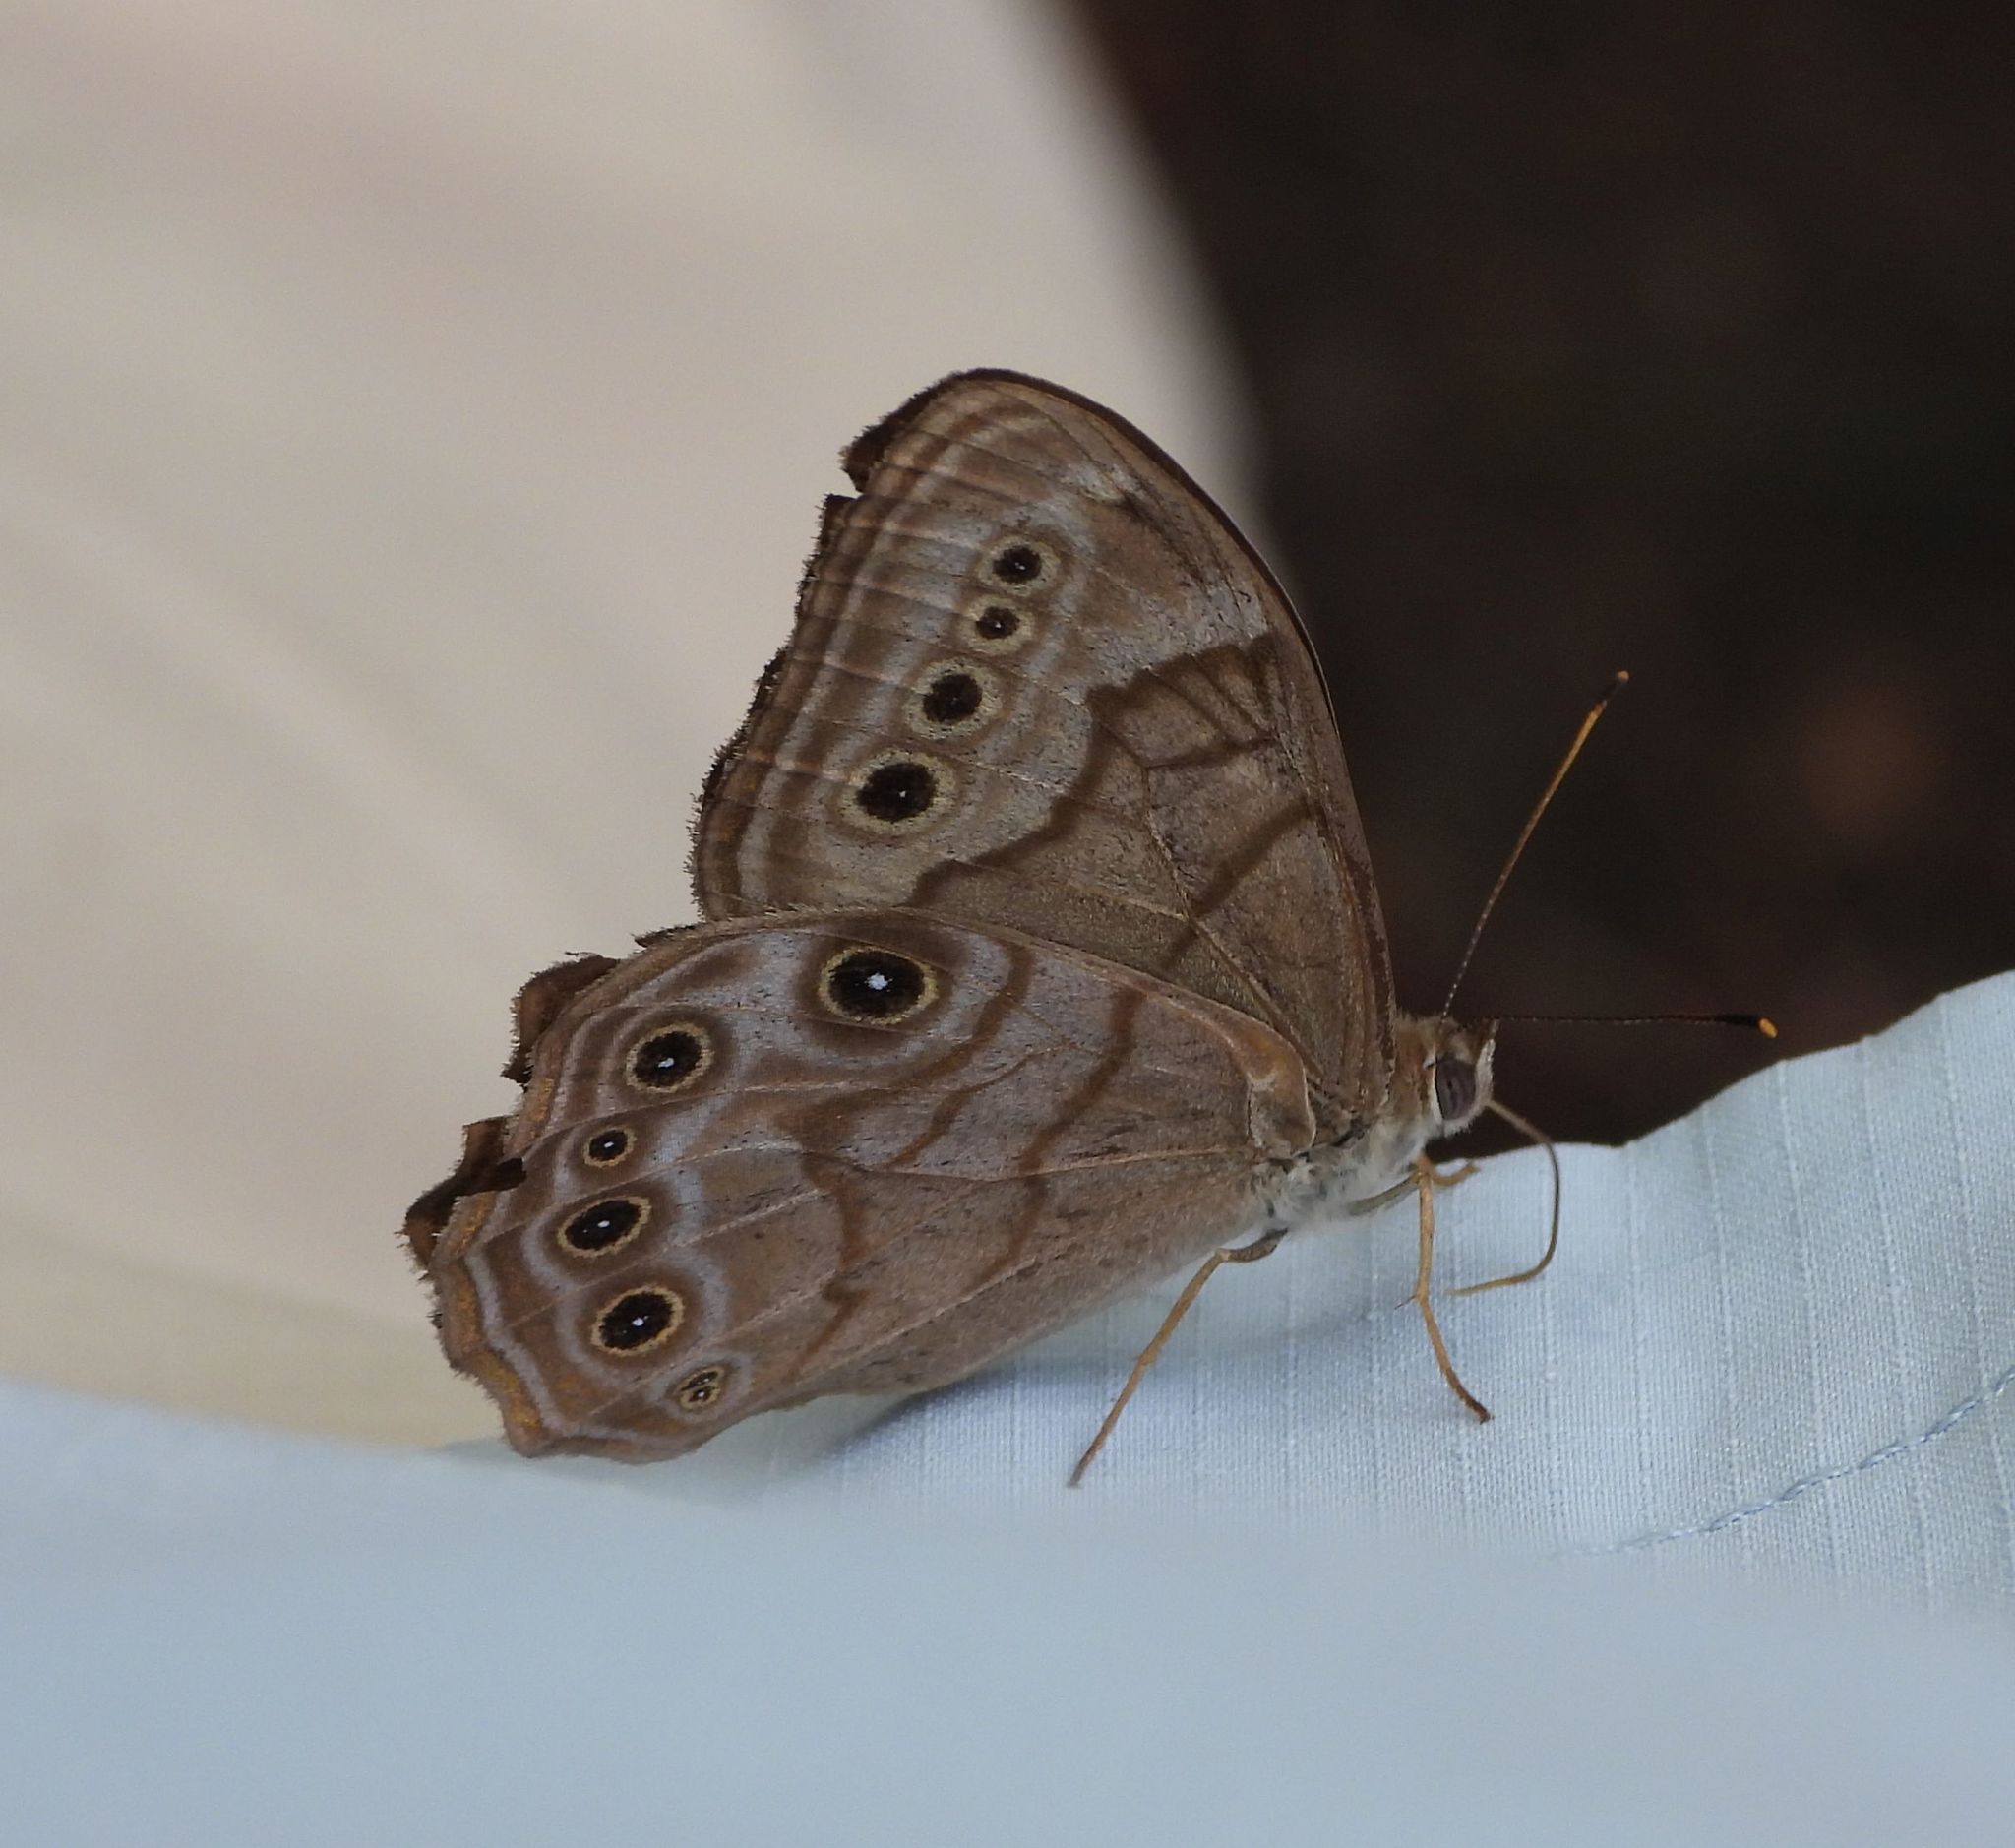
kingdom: Animalia
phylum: Arthropoda
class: Insecta
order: Lepidoptera
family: Nymphalidae
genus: Lethe
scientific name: Lethe anthedon
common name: Northern pearly-eye
